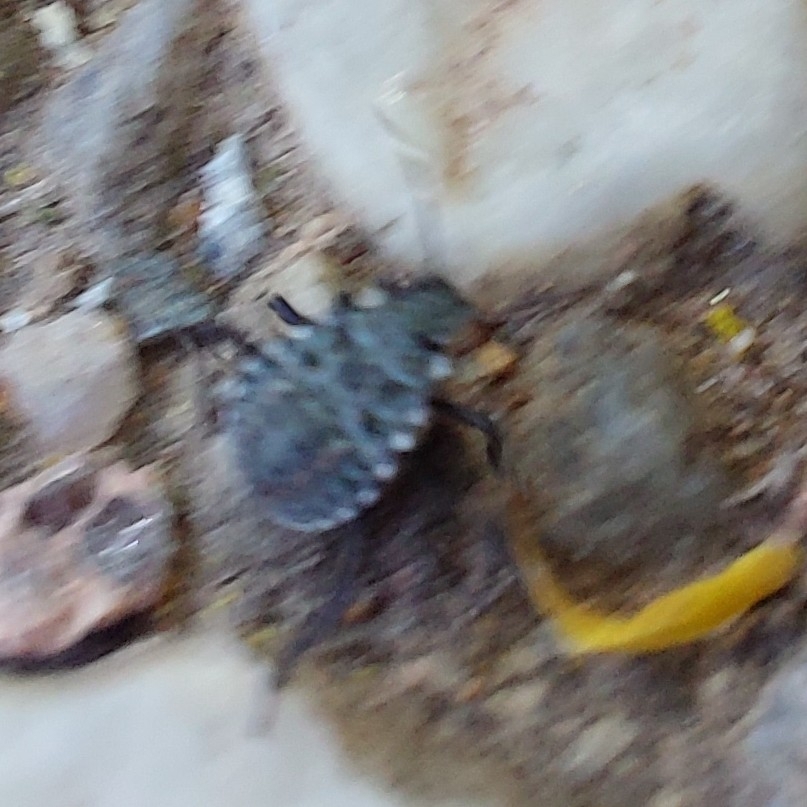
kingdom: Animalia
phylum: Arthropoda
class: Insecta
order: Hemiptera
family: Pentatomidae
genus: Halyomorpha
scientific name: Halyomorpha halys
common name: Brown marmorated stink bug
